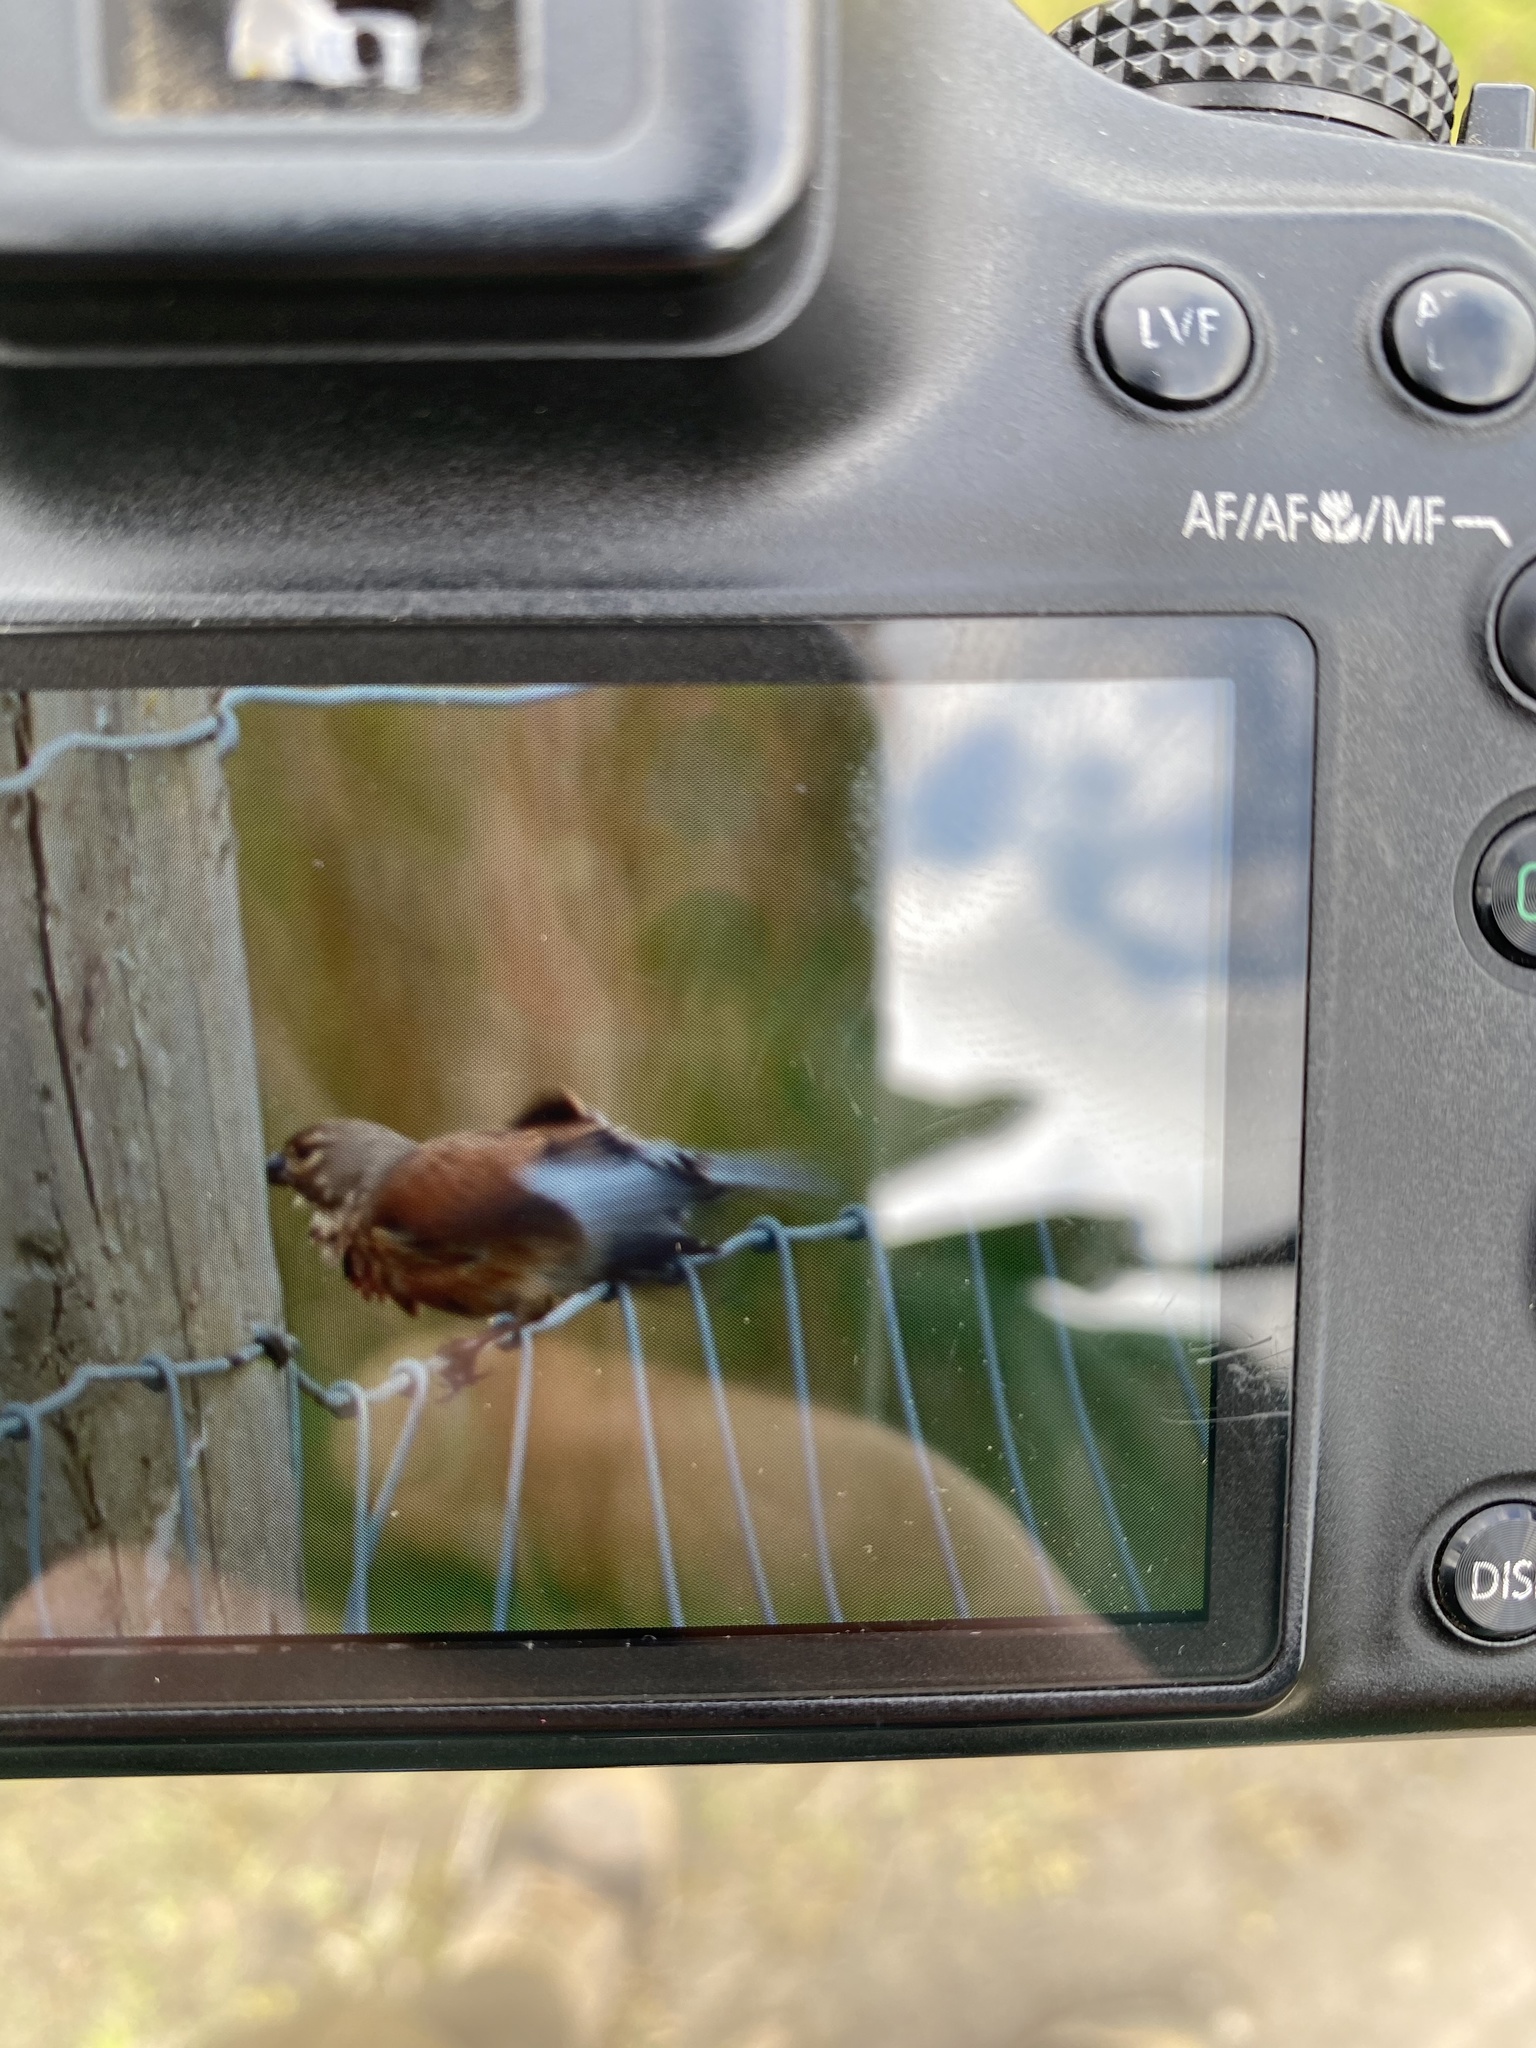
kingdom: Animalia
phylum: Chordata
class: Aves
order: Passeriformes
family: Fringillidae
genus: Linaria
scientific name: Linaria cannabina
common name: Common linnet
